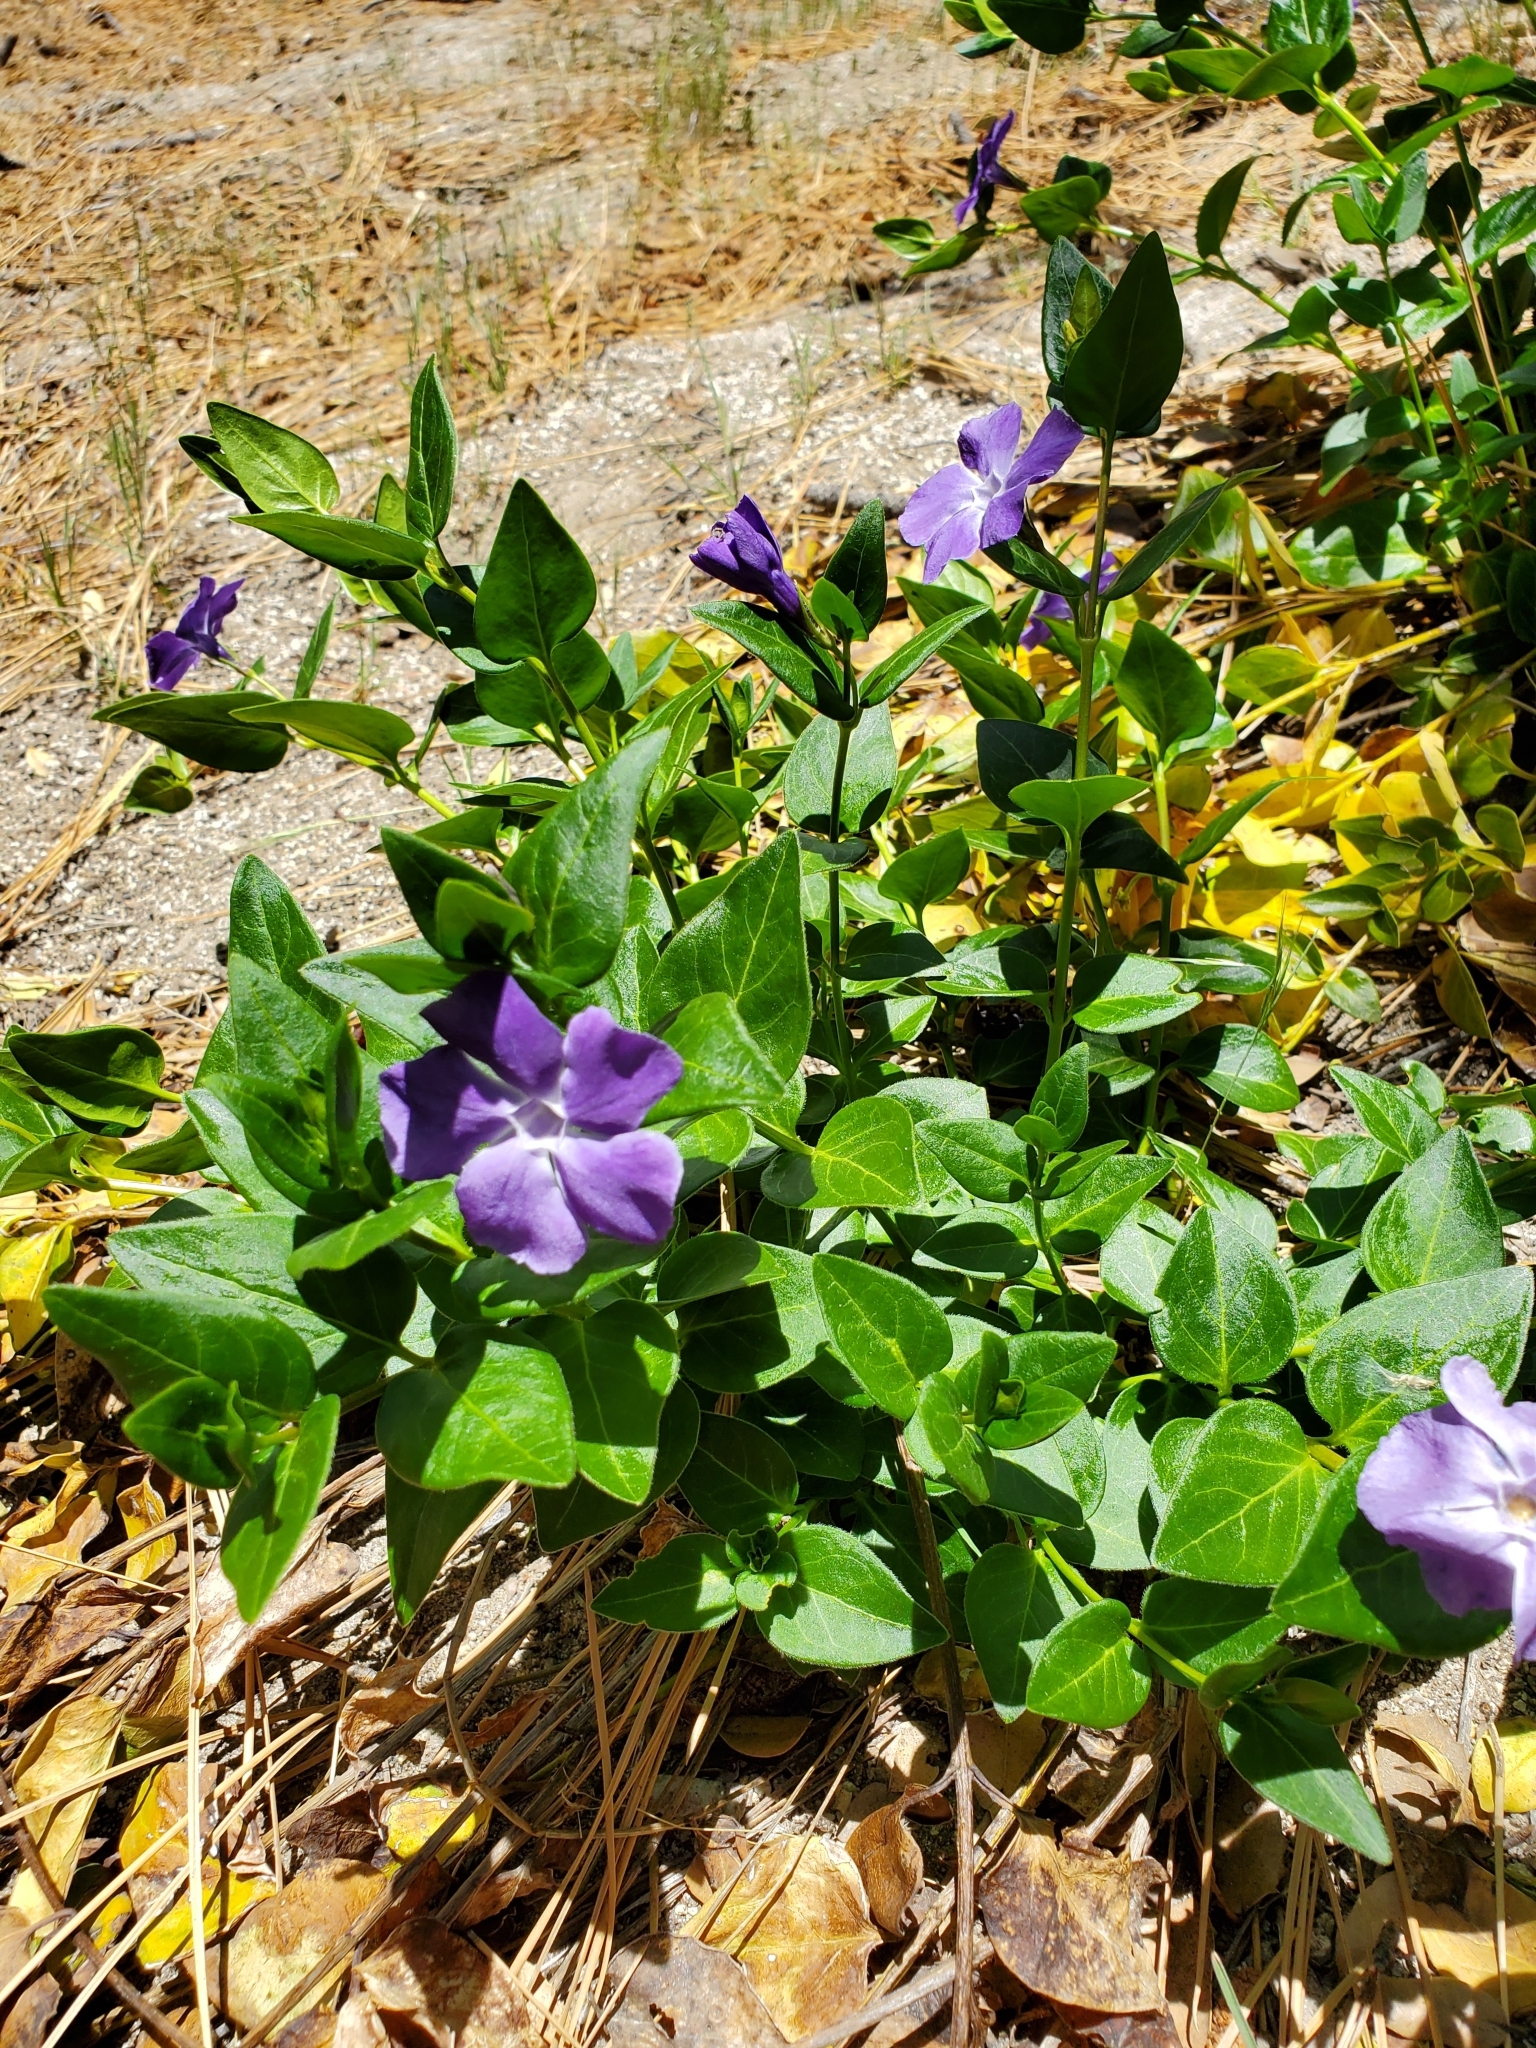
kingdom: Plantae
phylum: Tracheophyta
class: Magnoliopsida
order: Gentianales
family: Apocynaceae
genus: Vinca
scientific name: Vinca major
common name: Greater periwinkle
